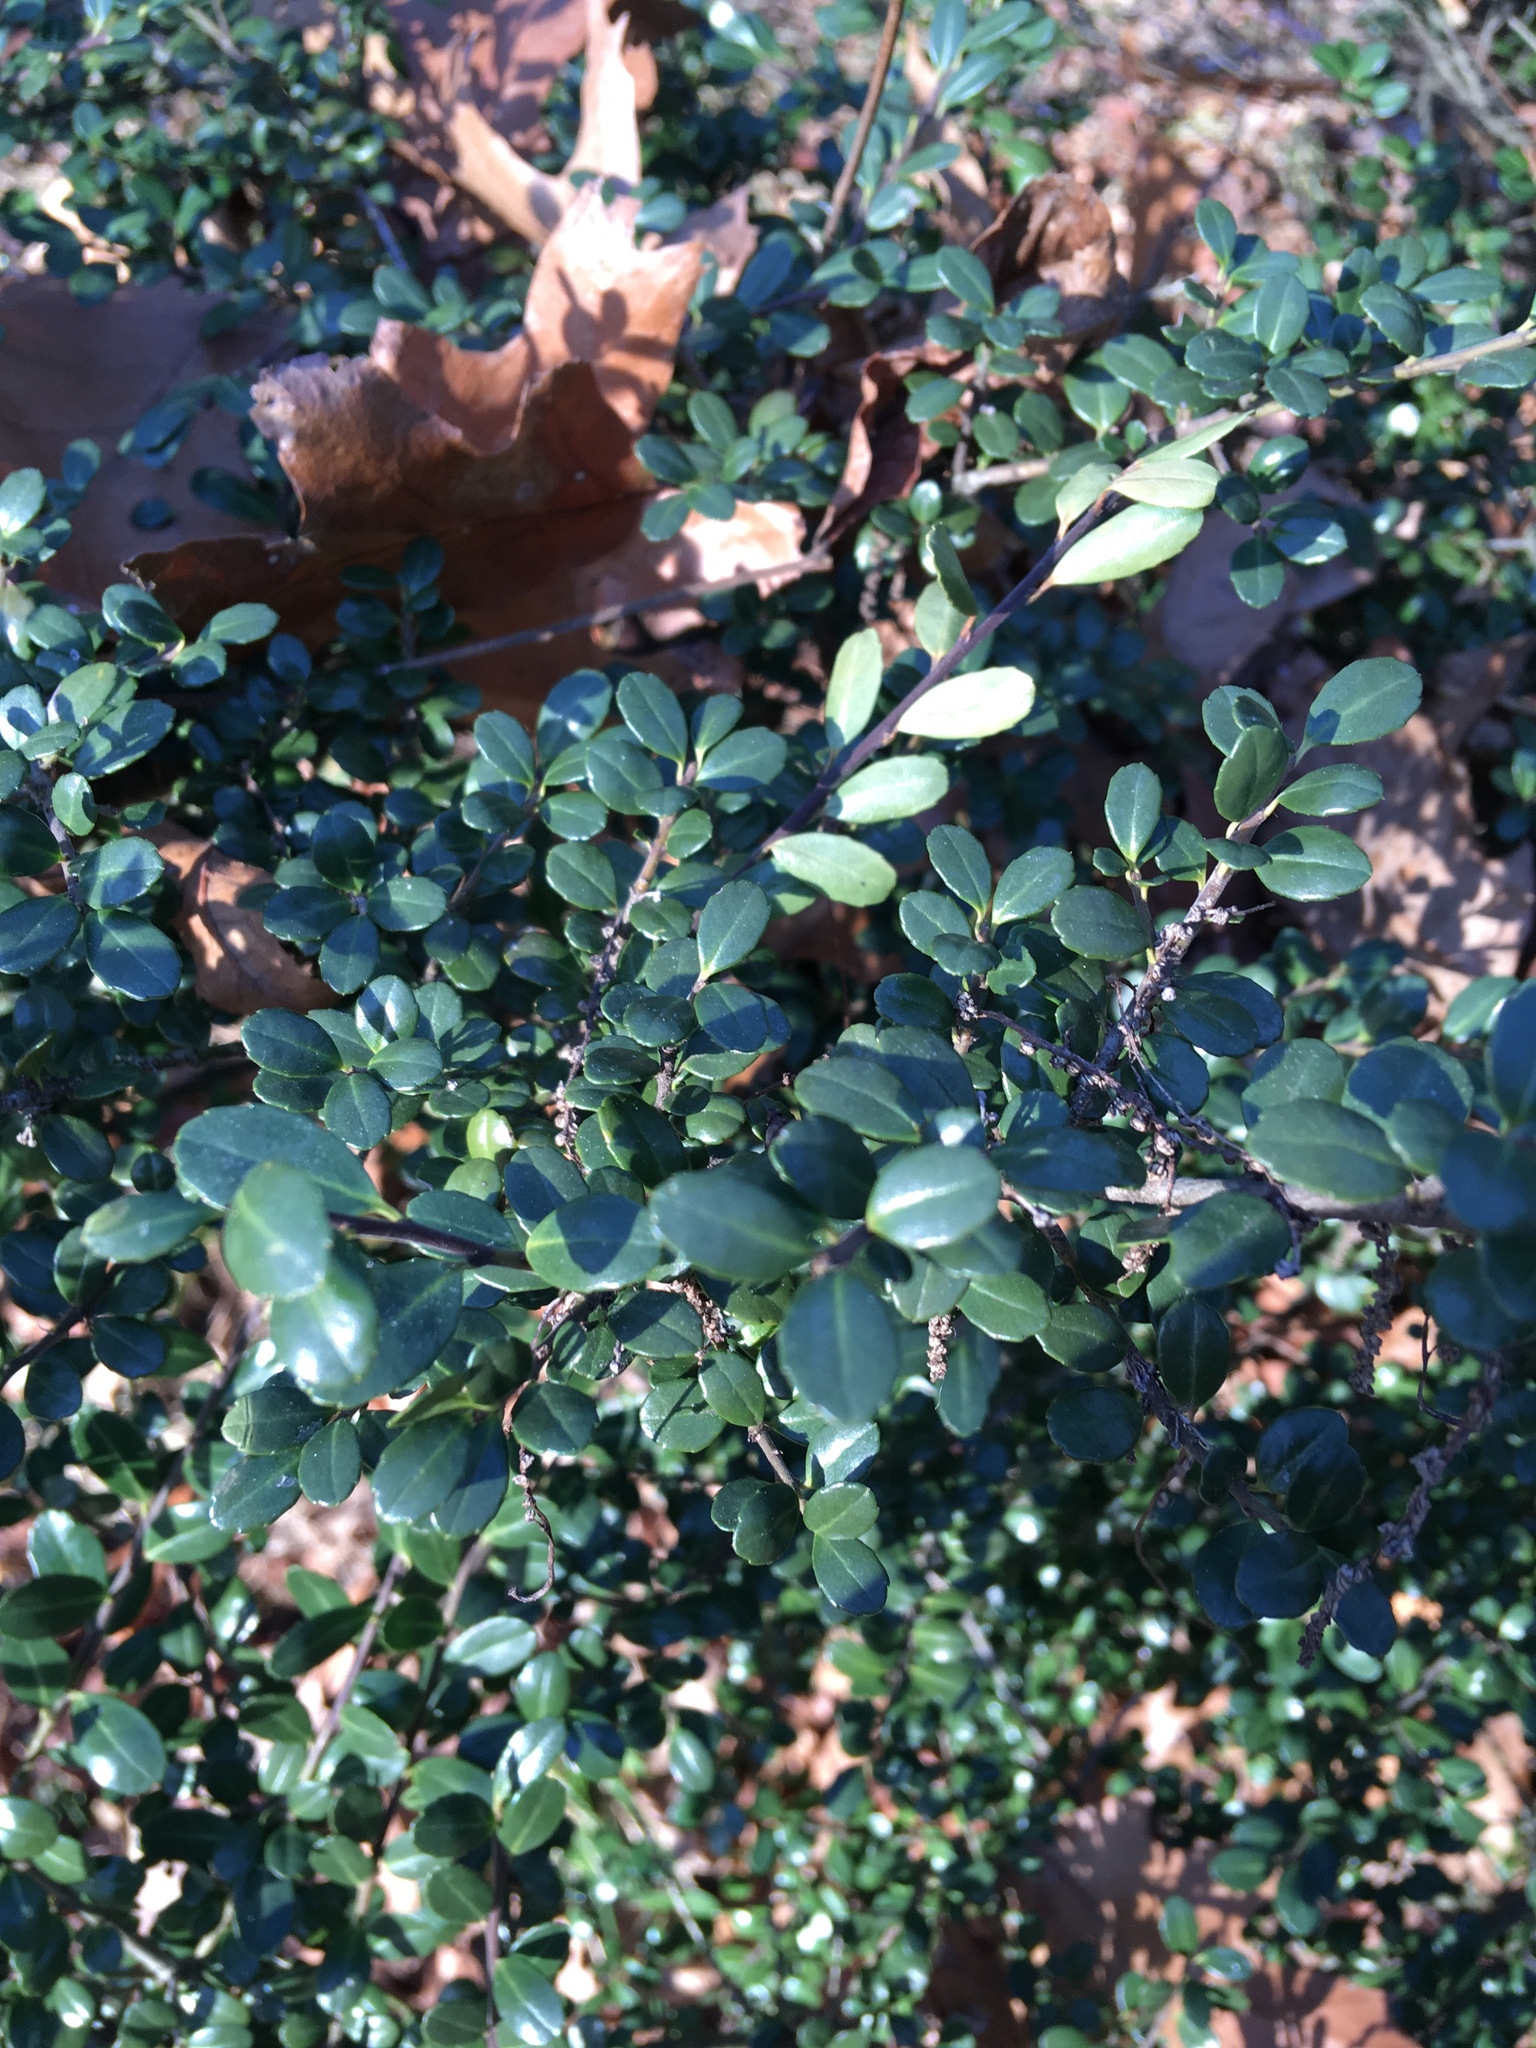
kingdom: Plantae
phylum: Tracheophyta
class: Magnoliopsida
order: Aquifoliales
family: Aquifoliaceae
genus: Ilex
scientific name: Ilex crenata
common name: Japanese holly
